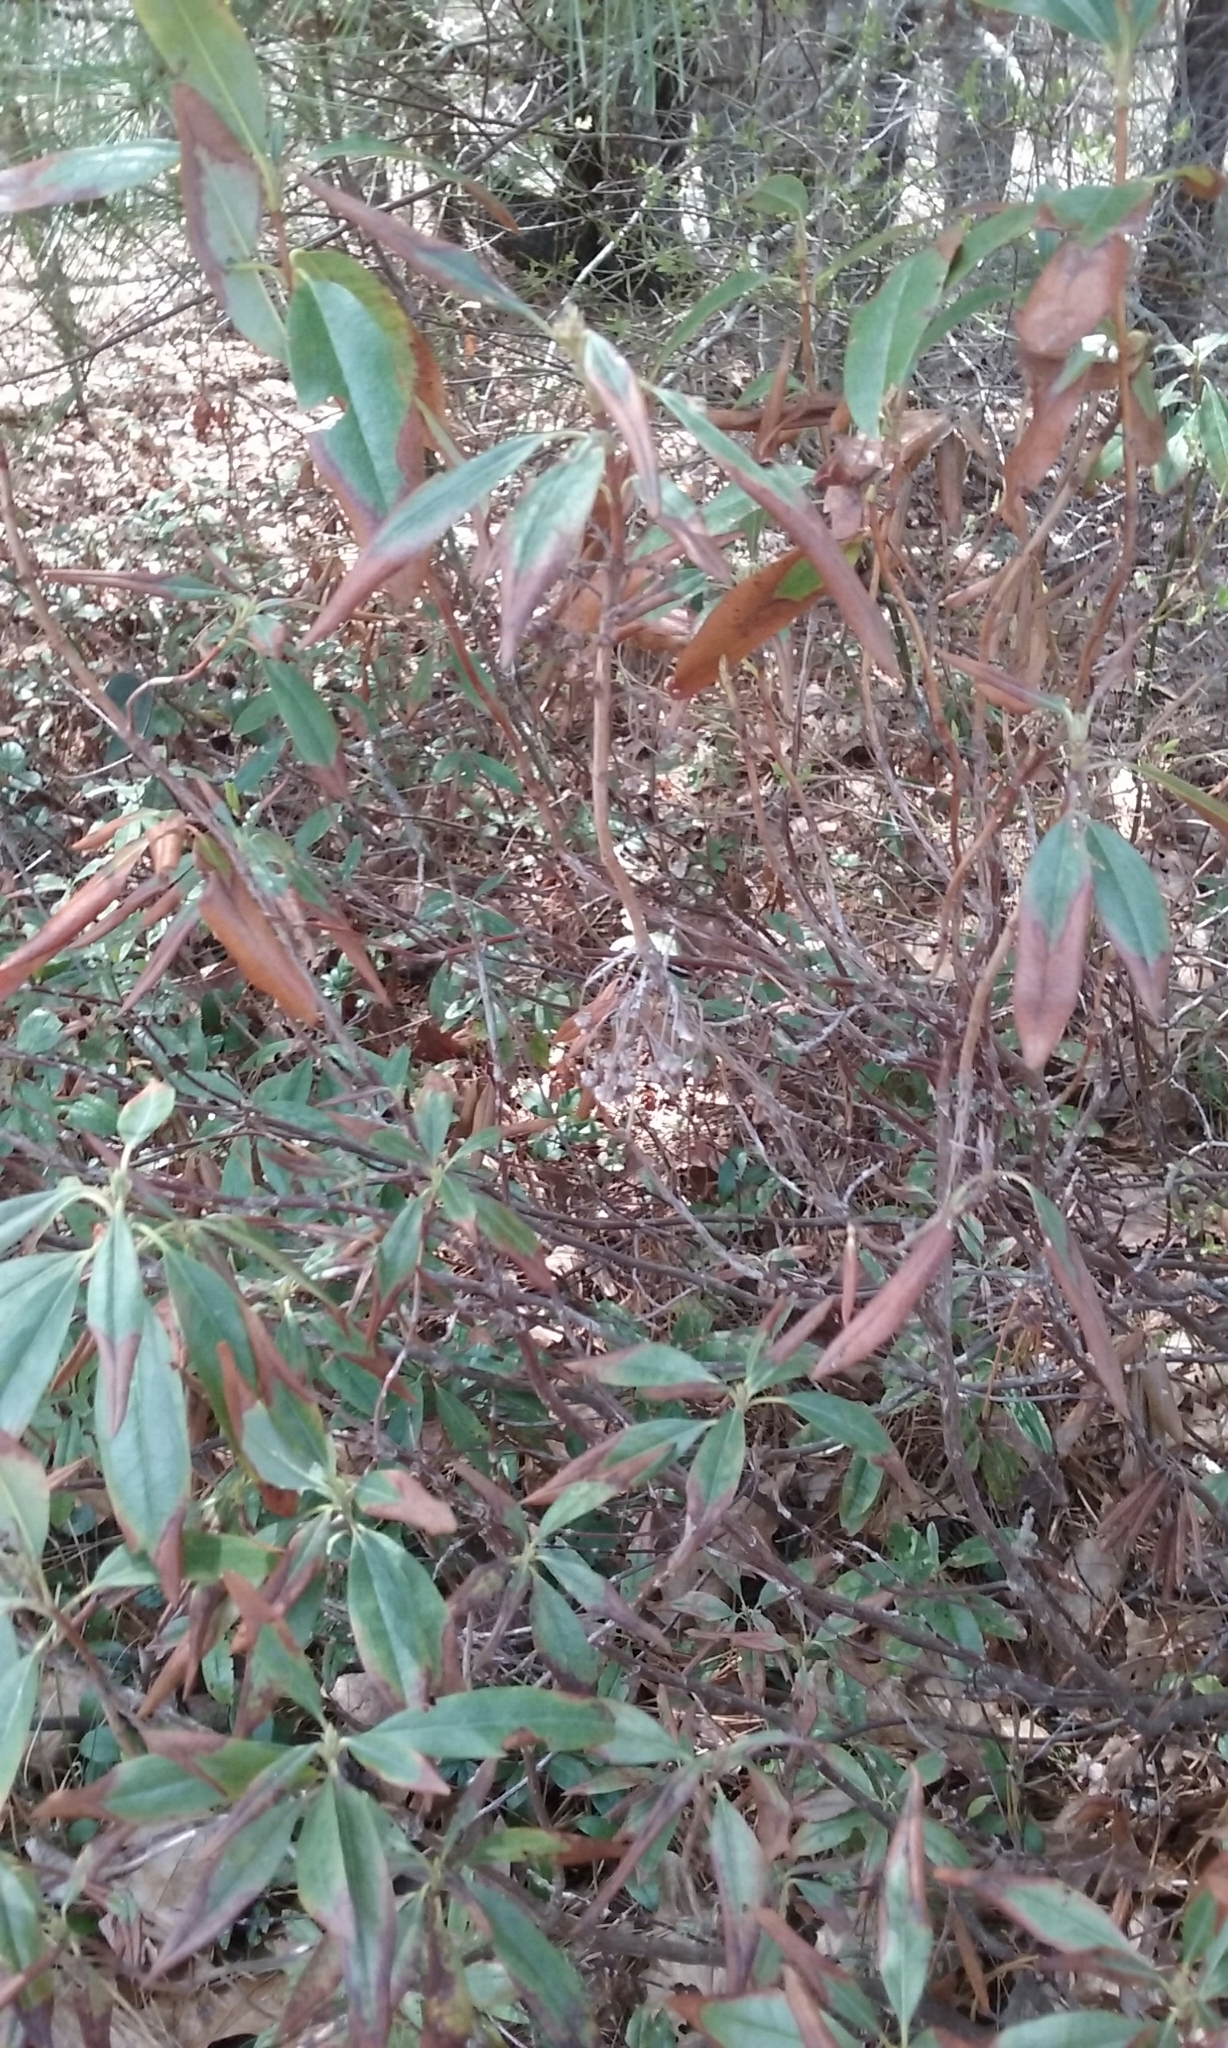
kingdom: Plantae
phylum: Tracheophyta
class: Magnoliopsida
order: Ericales
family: Ericaceae
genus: Kalmia
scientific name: Kalmia angustifolia
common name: Sheep-laurel
